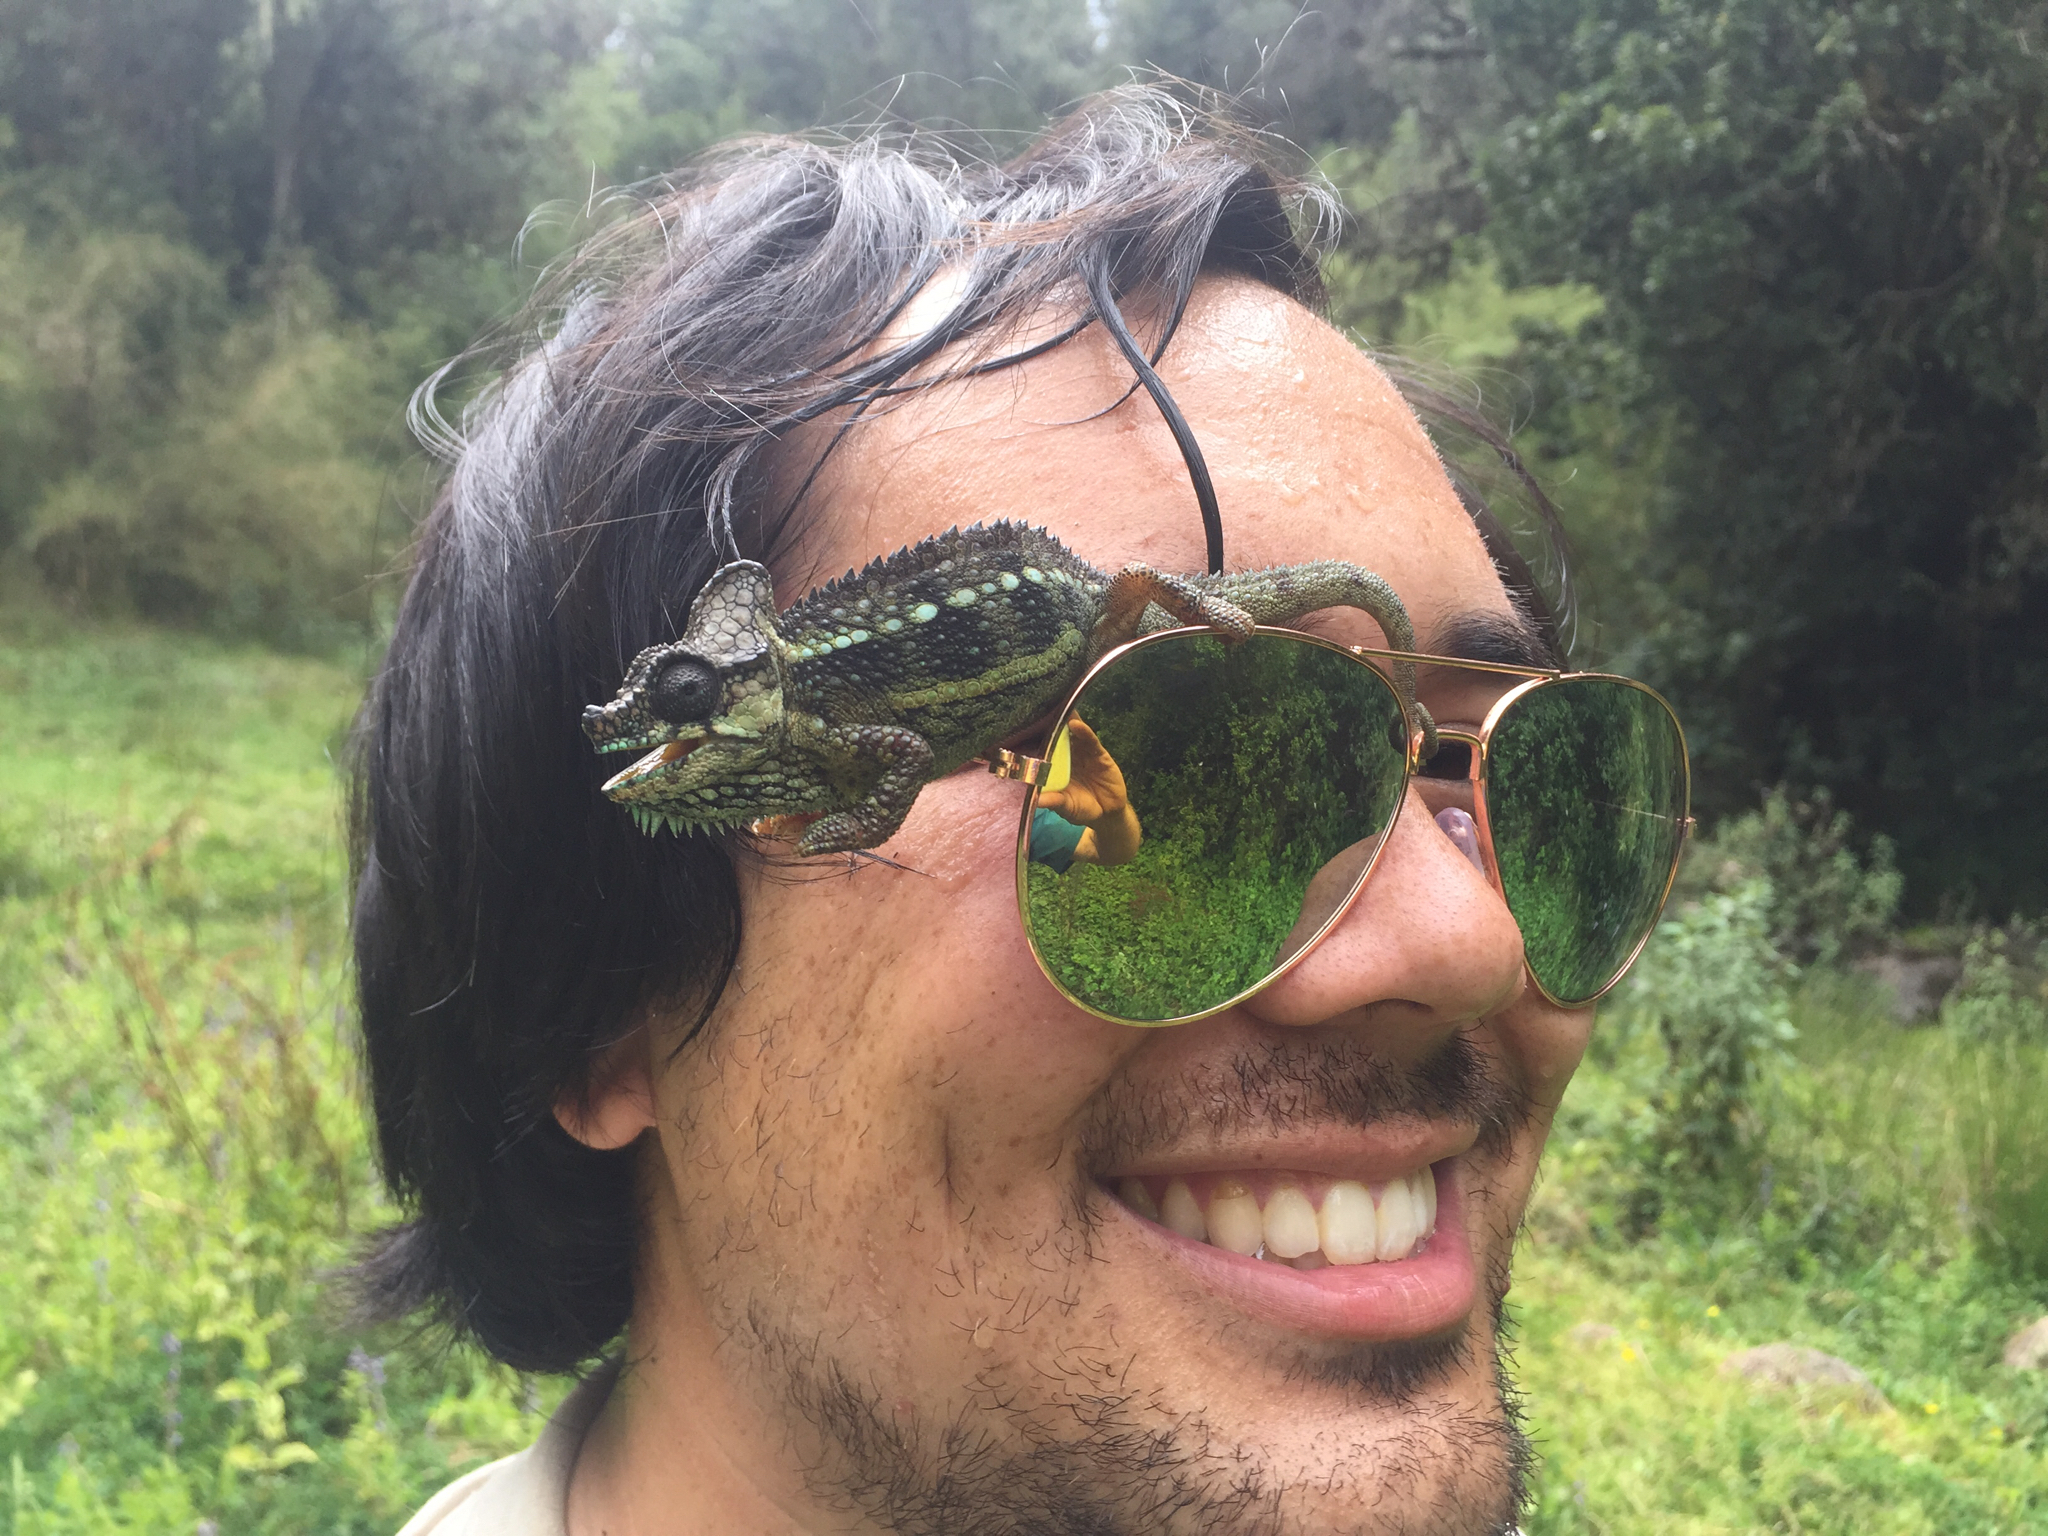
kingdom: Animalia
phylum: Chordata
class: Squamata
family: Chamaeleonidae
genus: Trioceros
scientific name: Trioceros hoehnelii
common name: High-casqued chameleon
